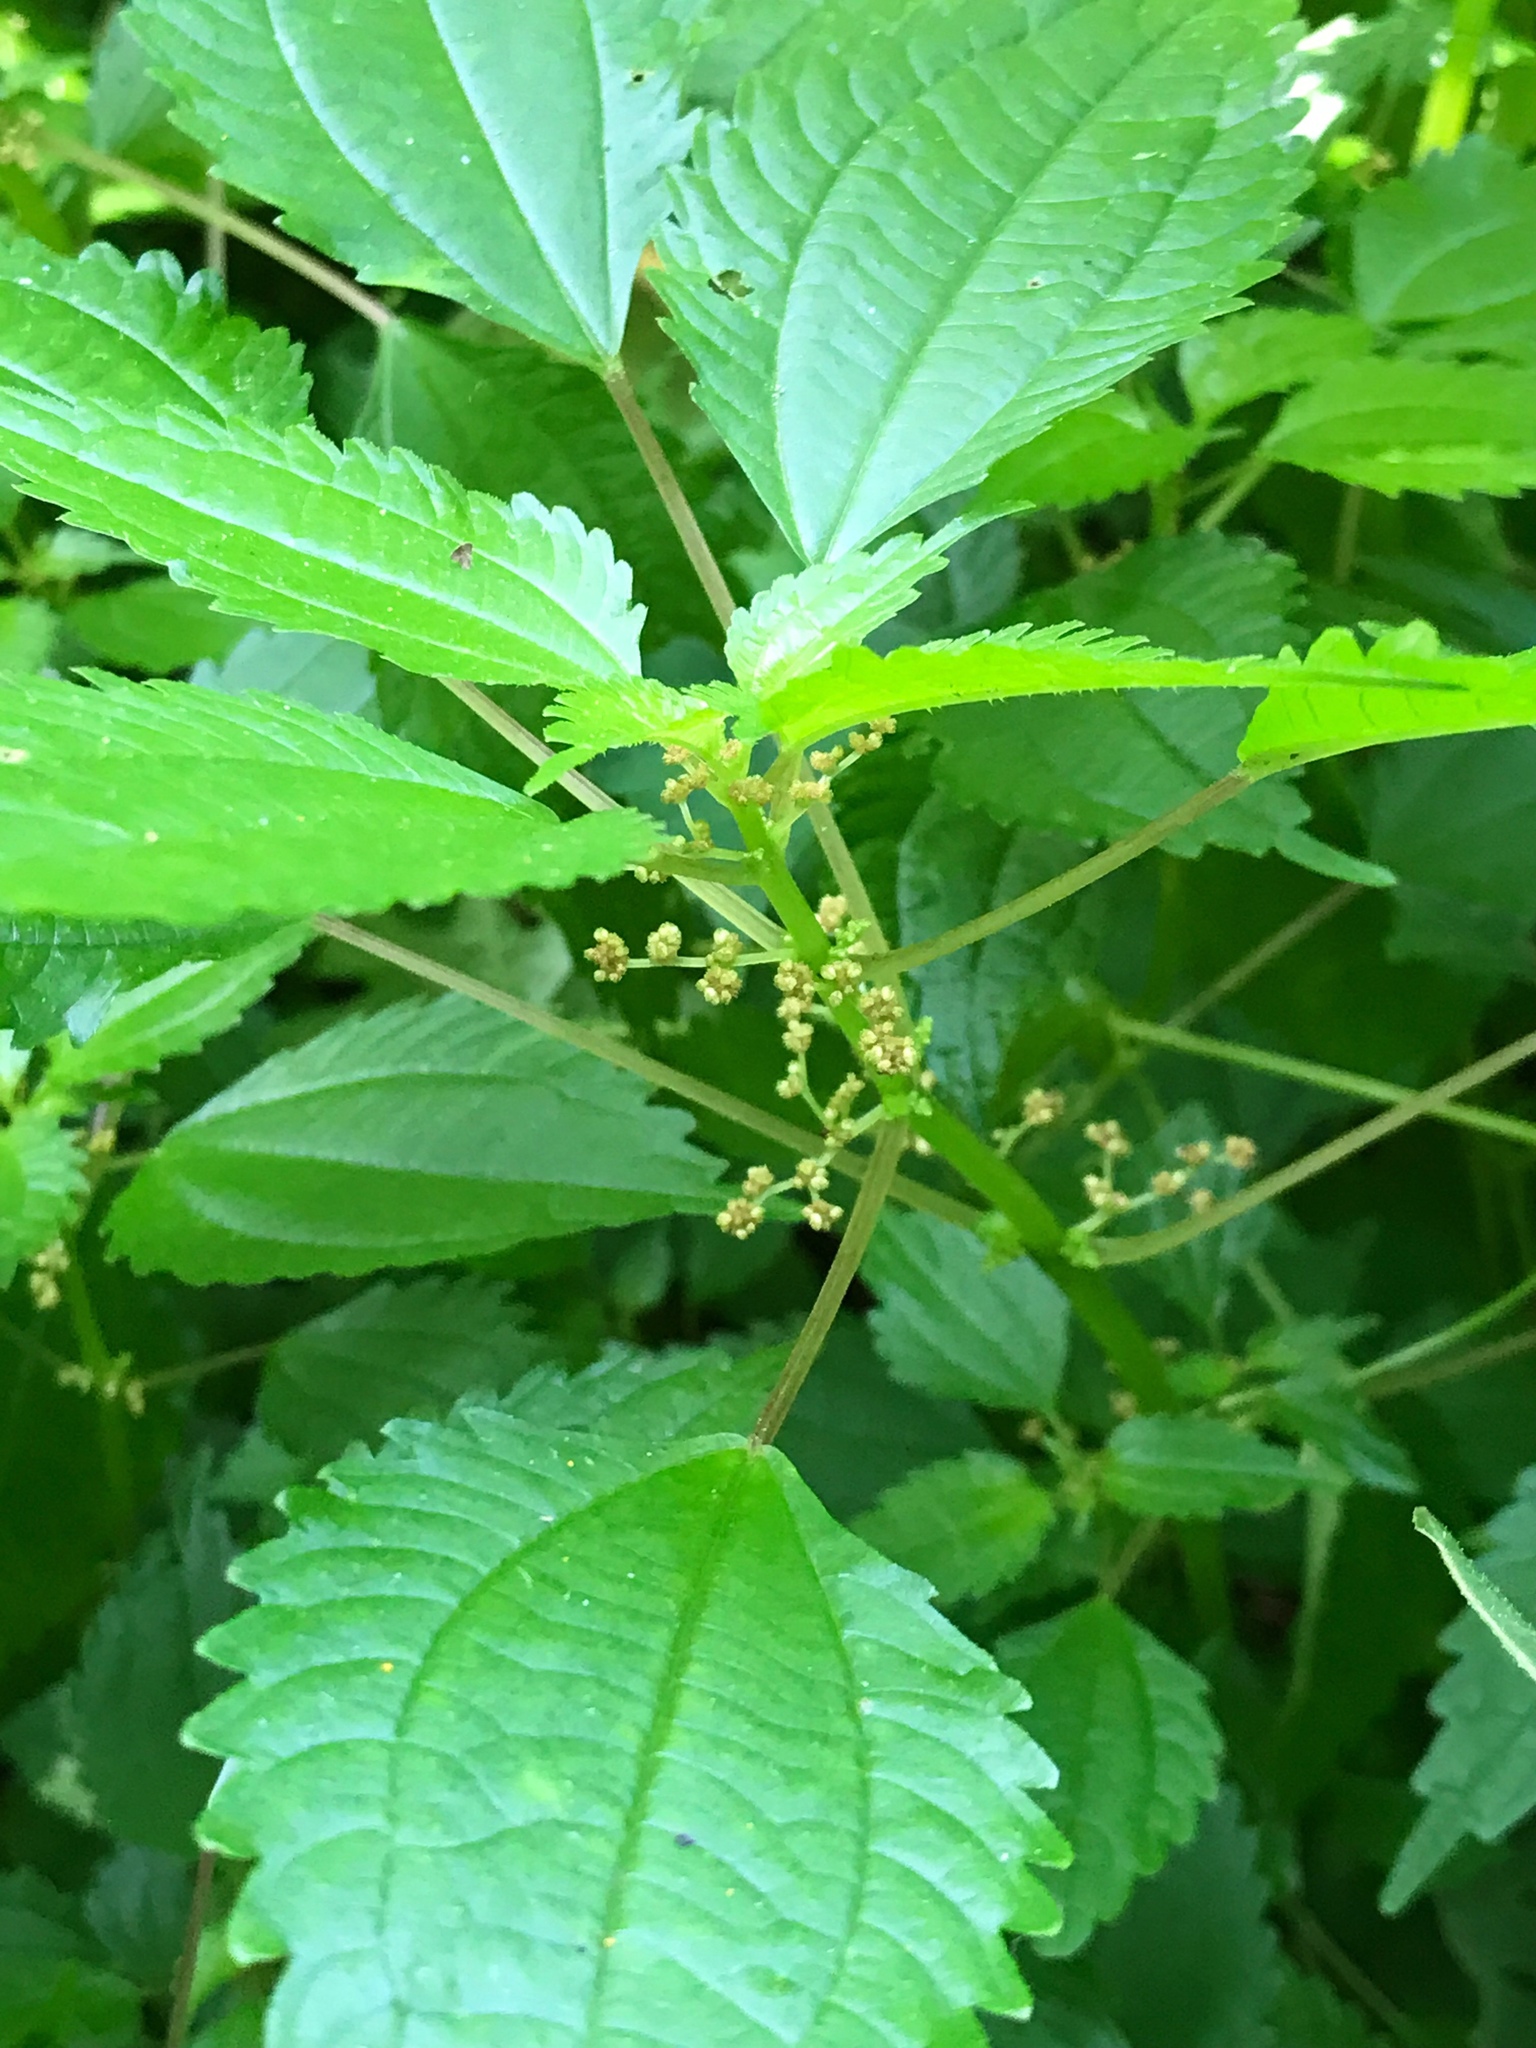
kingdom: Plantae
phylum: Tracheophyta
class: Magnoliopsida
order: Rosales
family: Urticaceae
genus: Pilea
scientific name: Pilea pumila
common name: Clearweed
